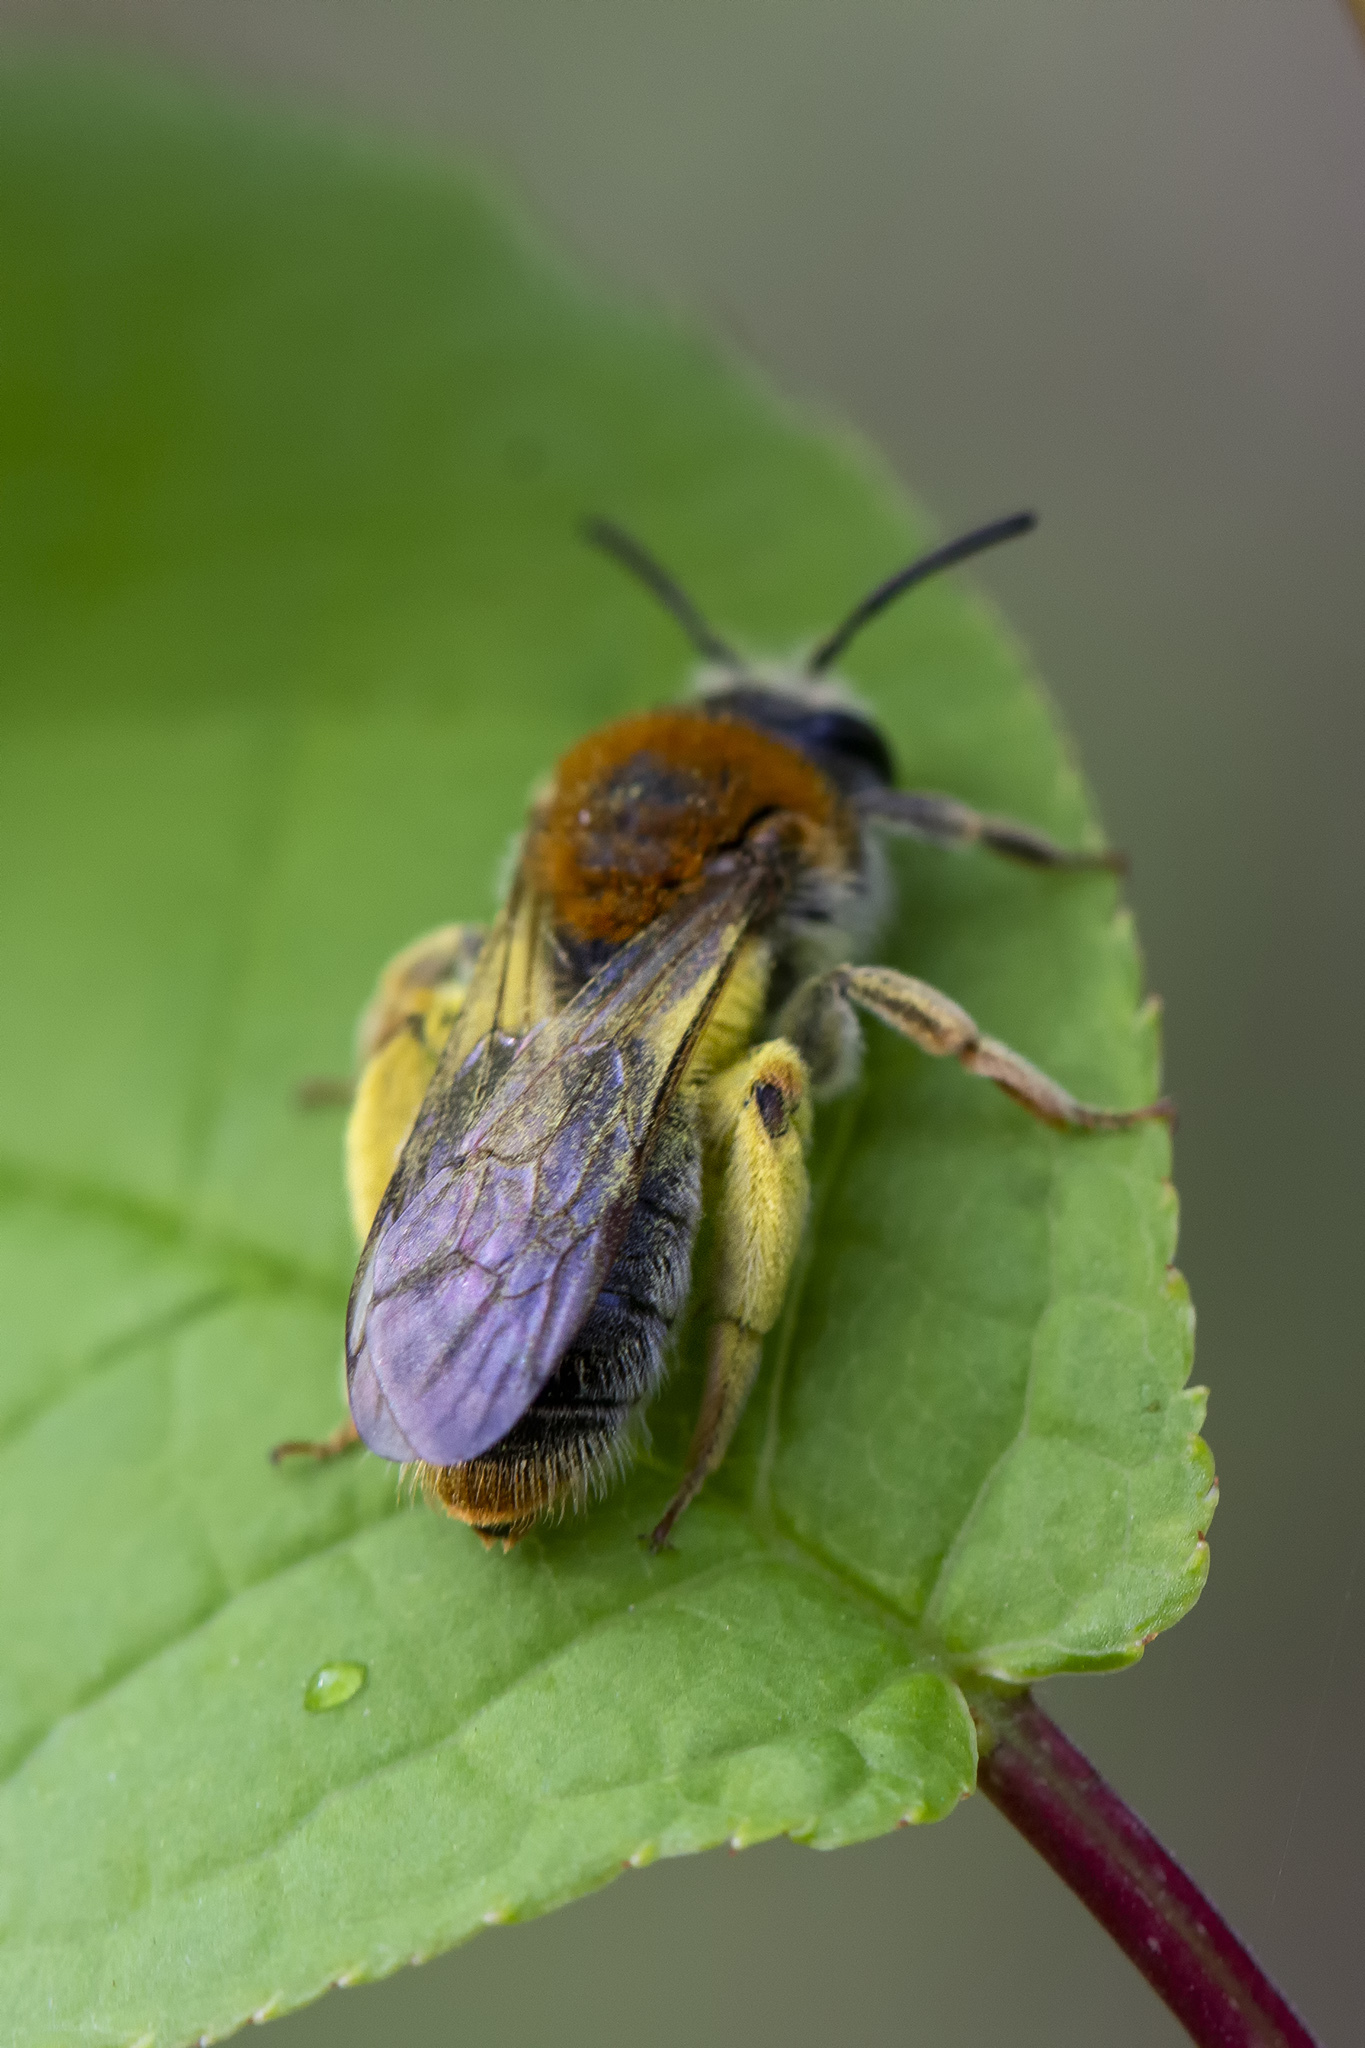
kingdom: Animalia
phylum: Arthropoda
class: Insecta
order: Hymenoptera
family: Andrenidae
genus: Andrena
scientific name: Andrena haemorrhoa
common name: Early mining bee
